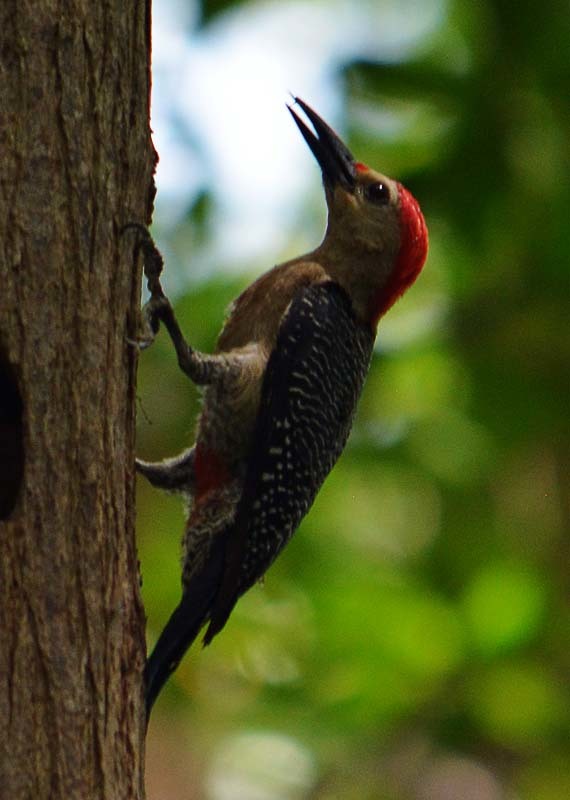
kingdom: Animalia
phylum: Chordata
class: Aves
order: Piciformes
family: Picidae
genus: Melanerpes
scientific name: Melanerpes aurifrons
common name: Golden-fronted woodpecker
